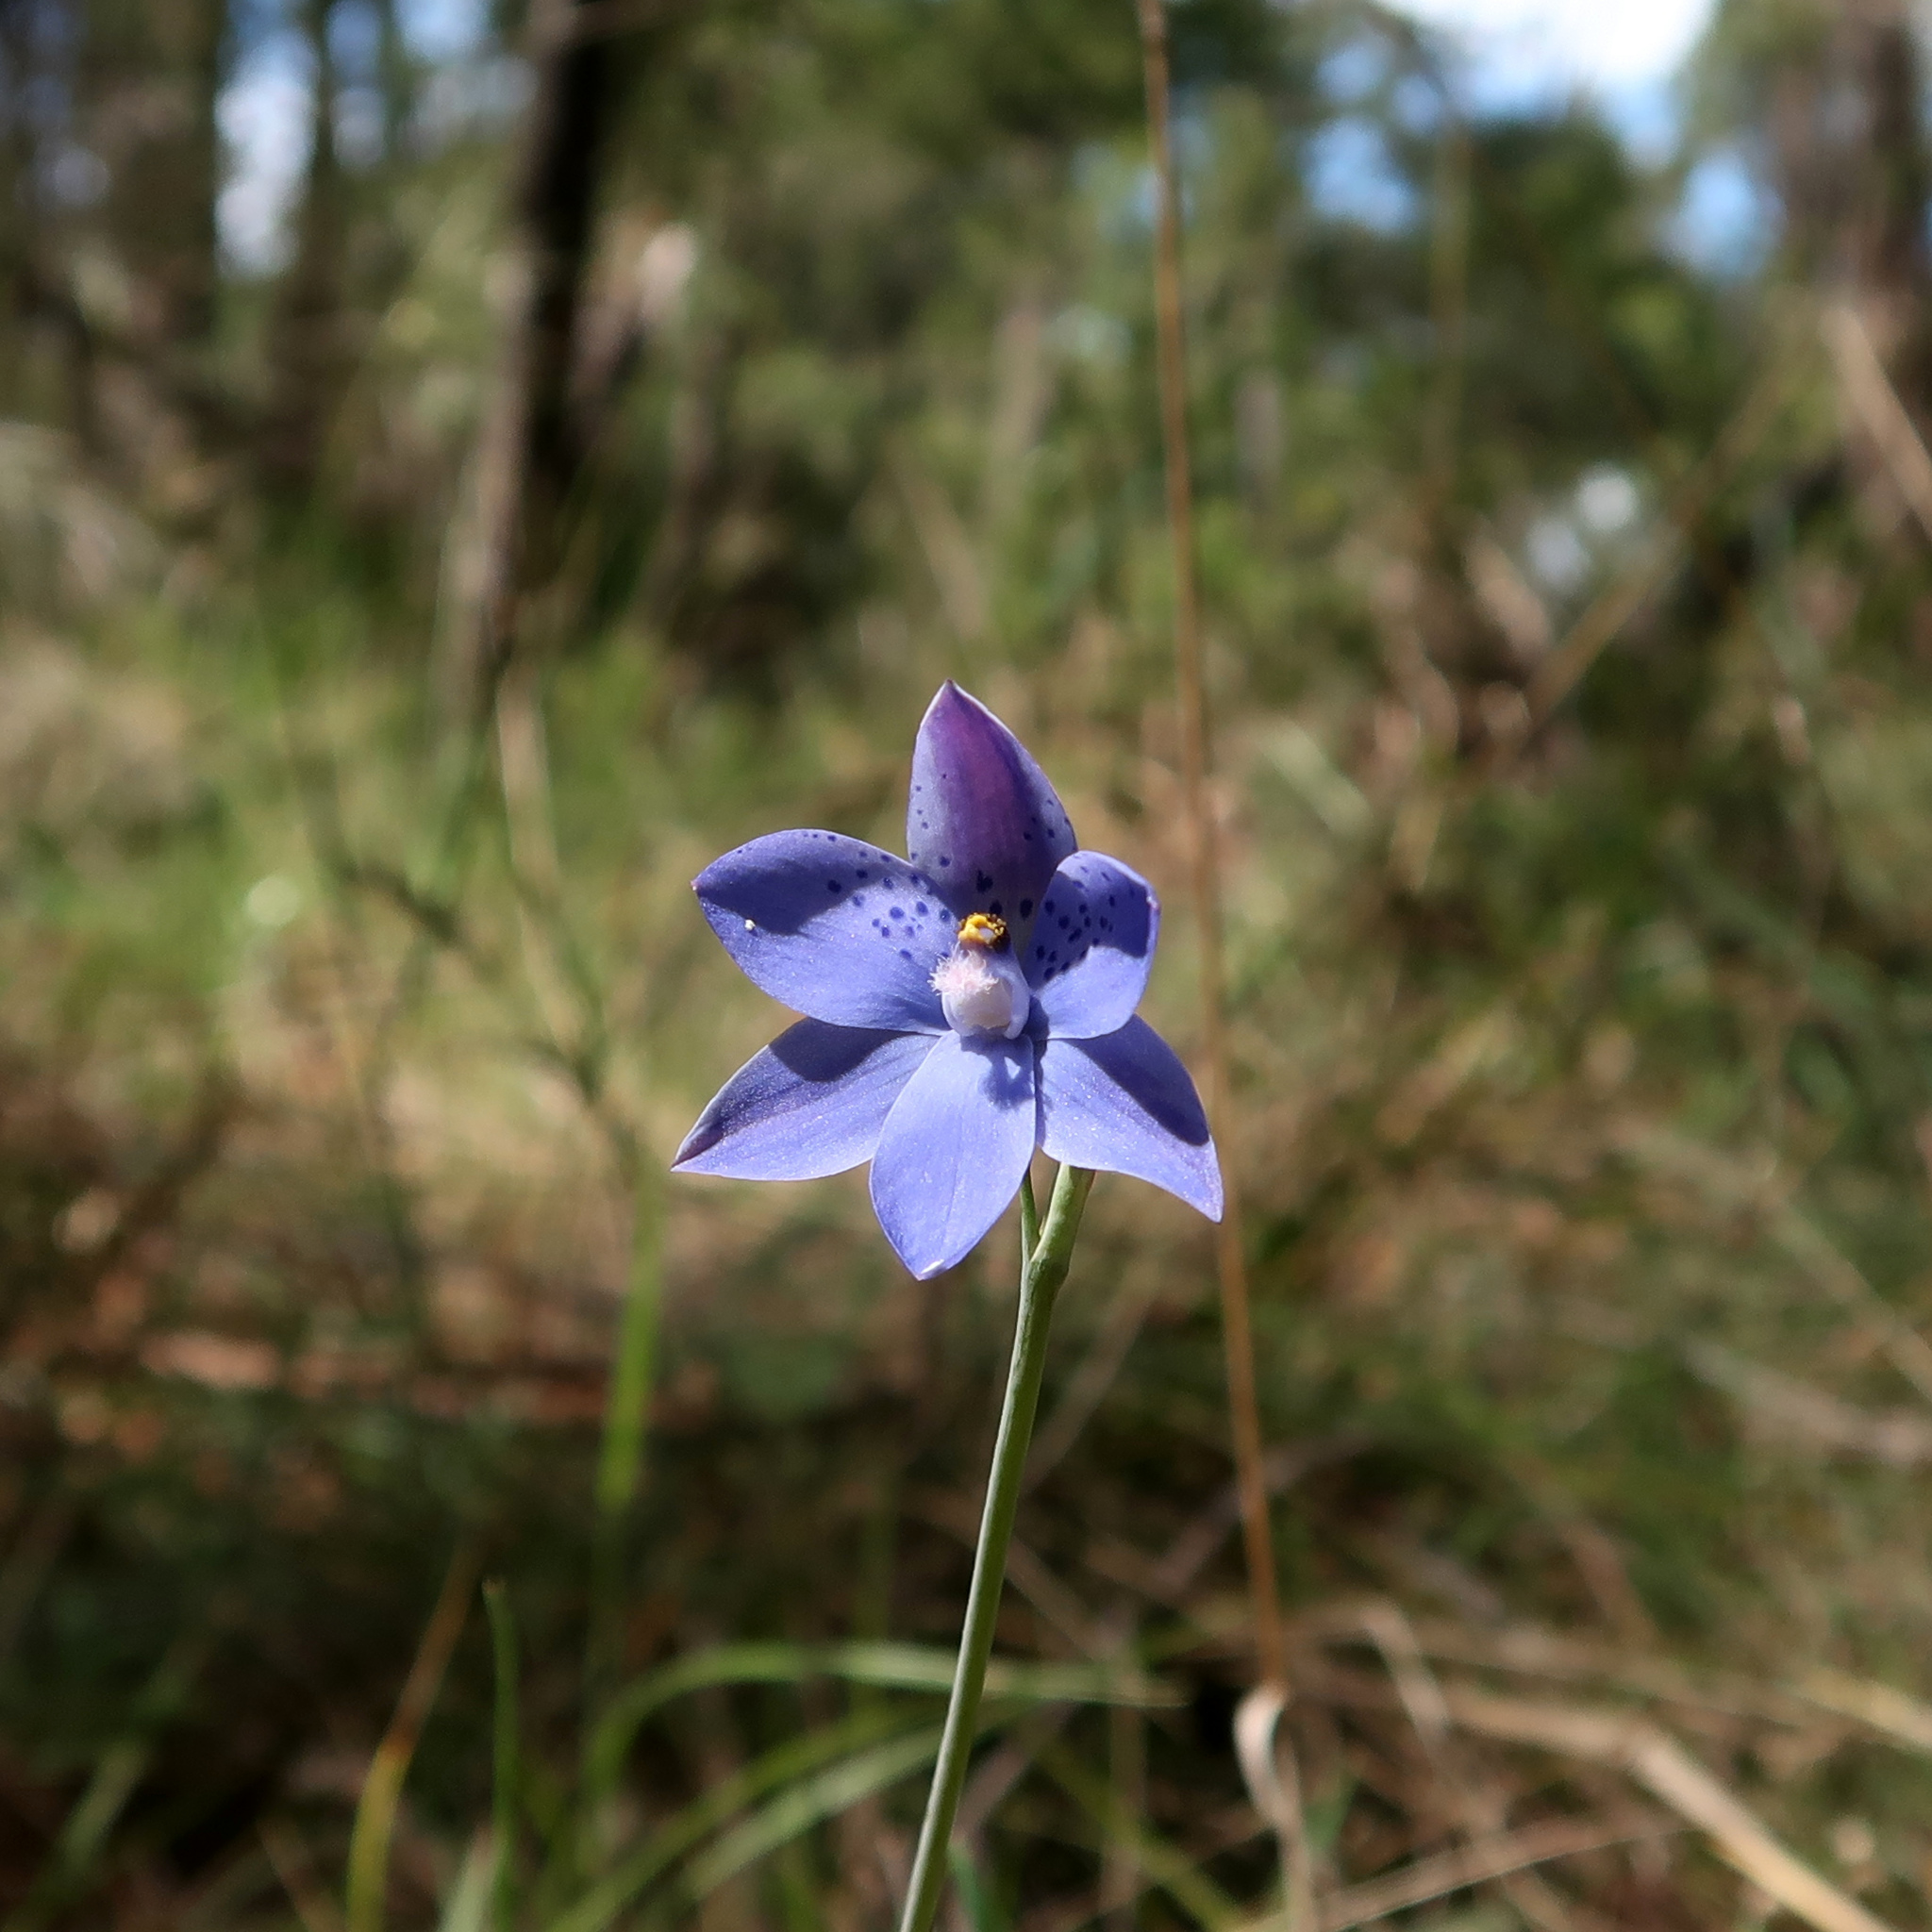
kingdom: Plantae
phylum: Tracheophyta
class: Liliopsida
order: Asparagales
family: Orchidaceae
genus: Thelymitra
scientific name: Thelymitra ixioides
